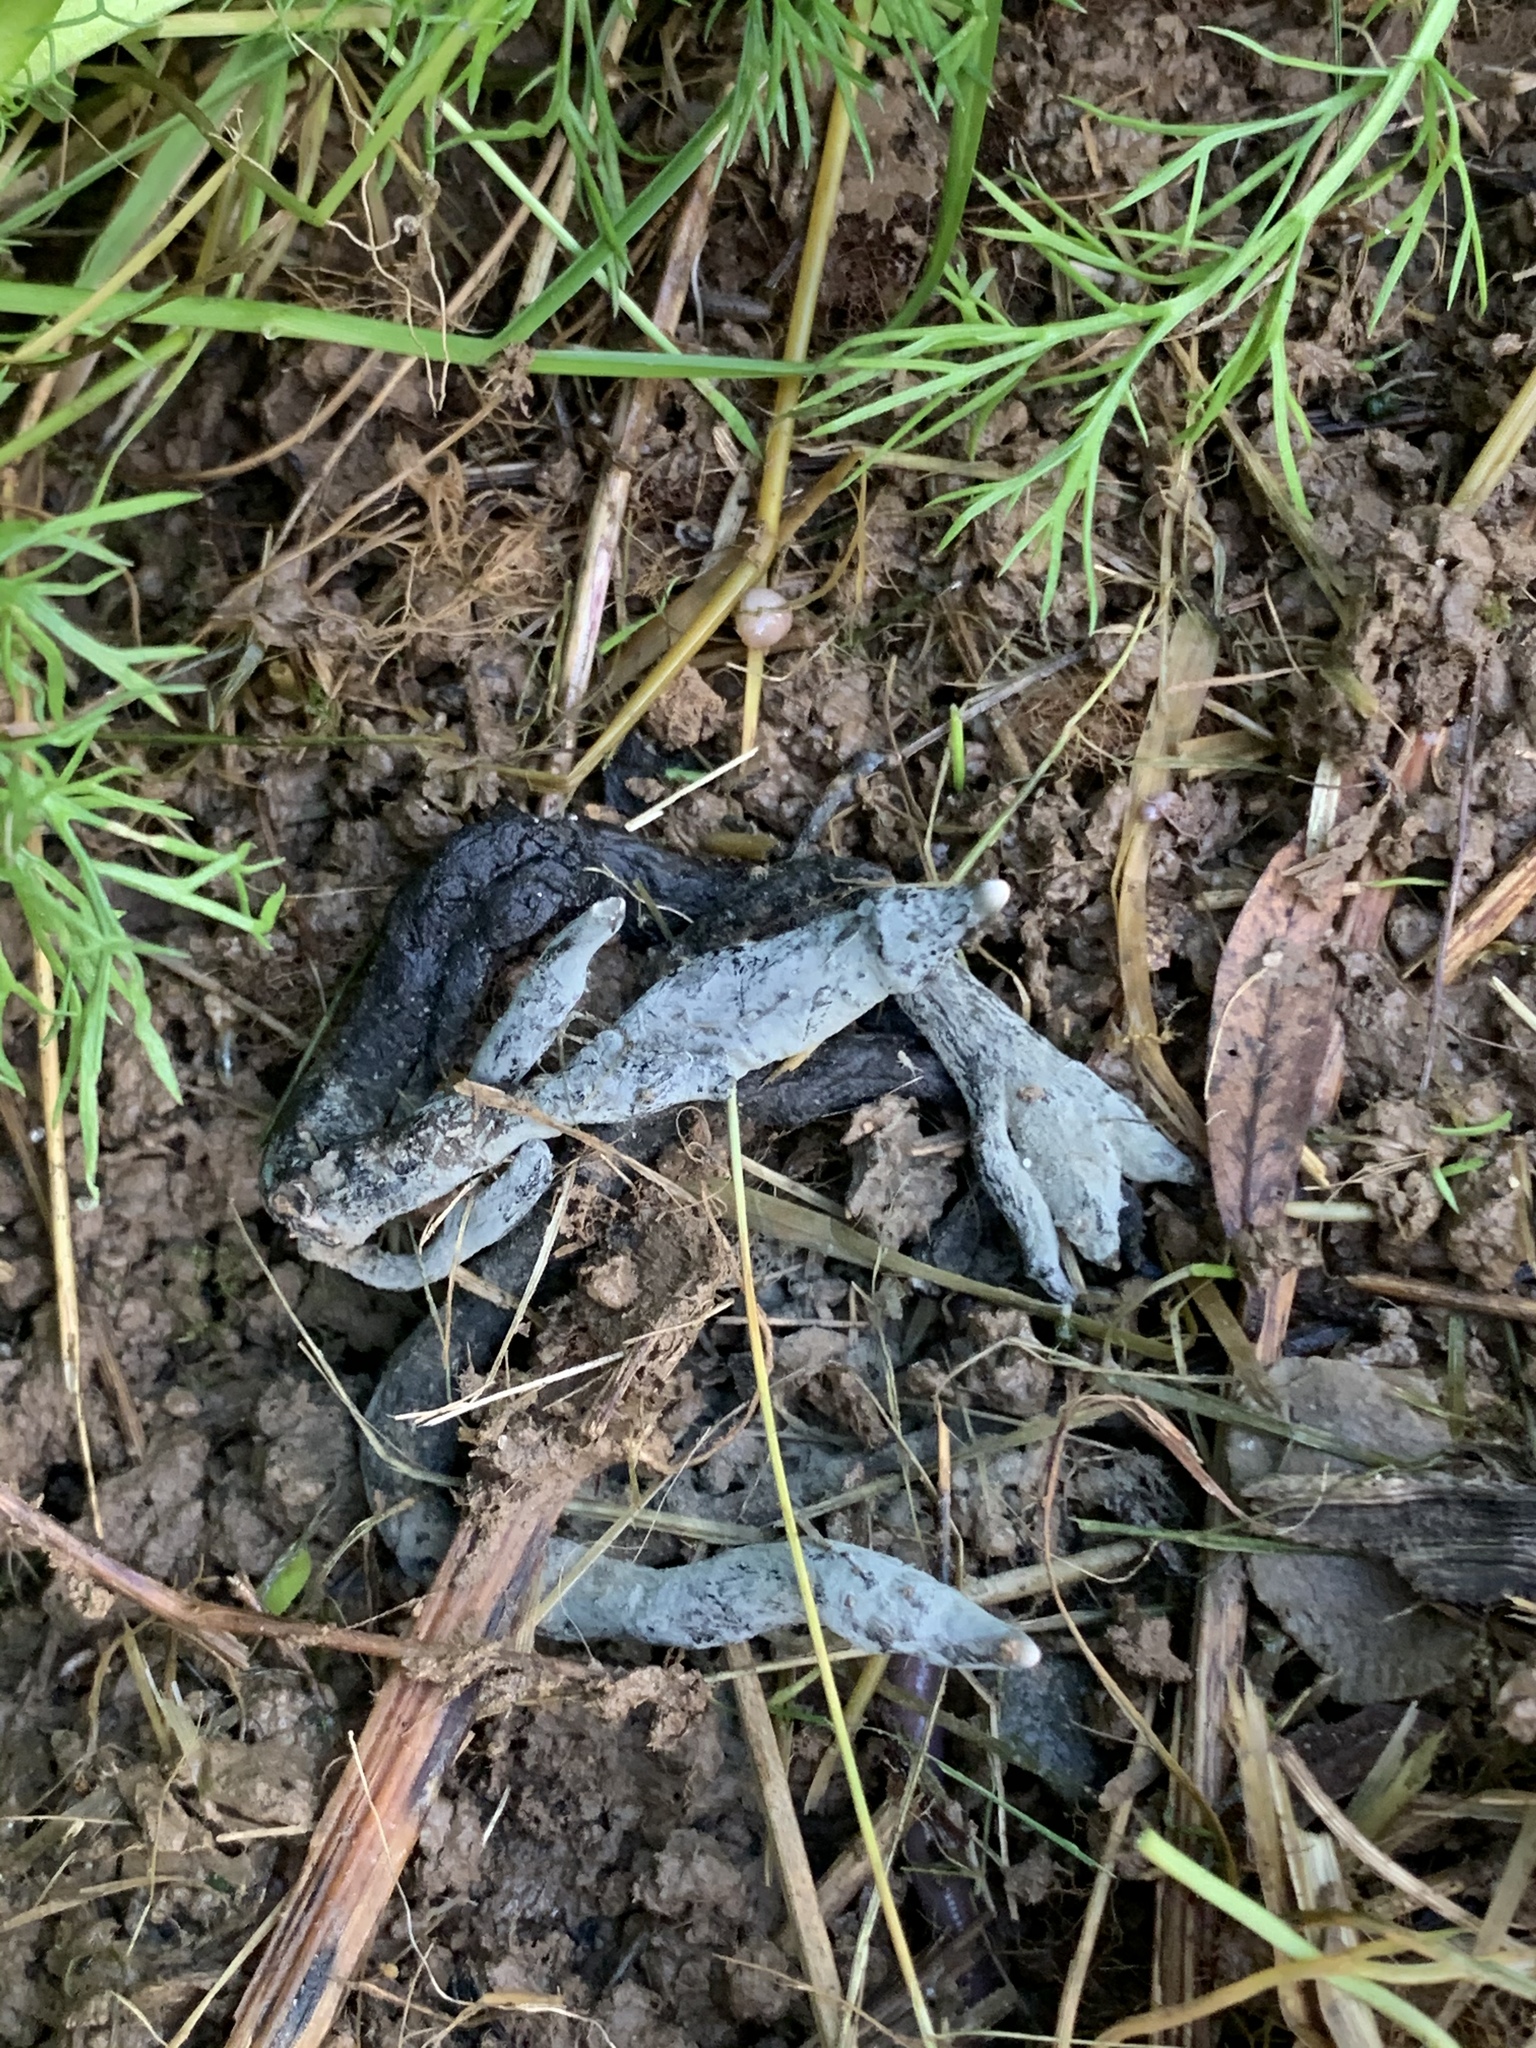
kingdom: Fungi
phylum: Ascomycota
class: Sordariomycetes
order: Xylariales
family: Xylariaceae
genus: Xylaria
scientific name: Xylaria polymorpha
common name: Dead man's fingers
